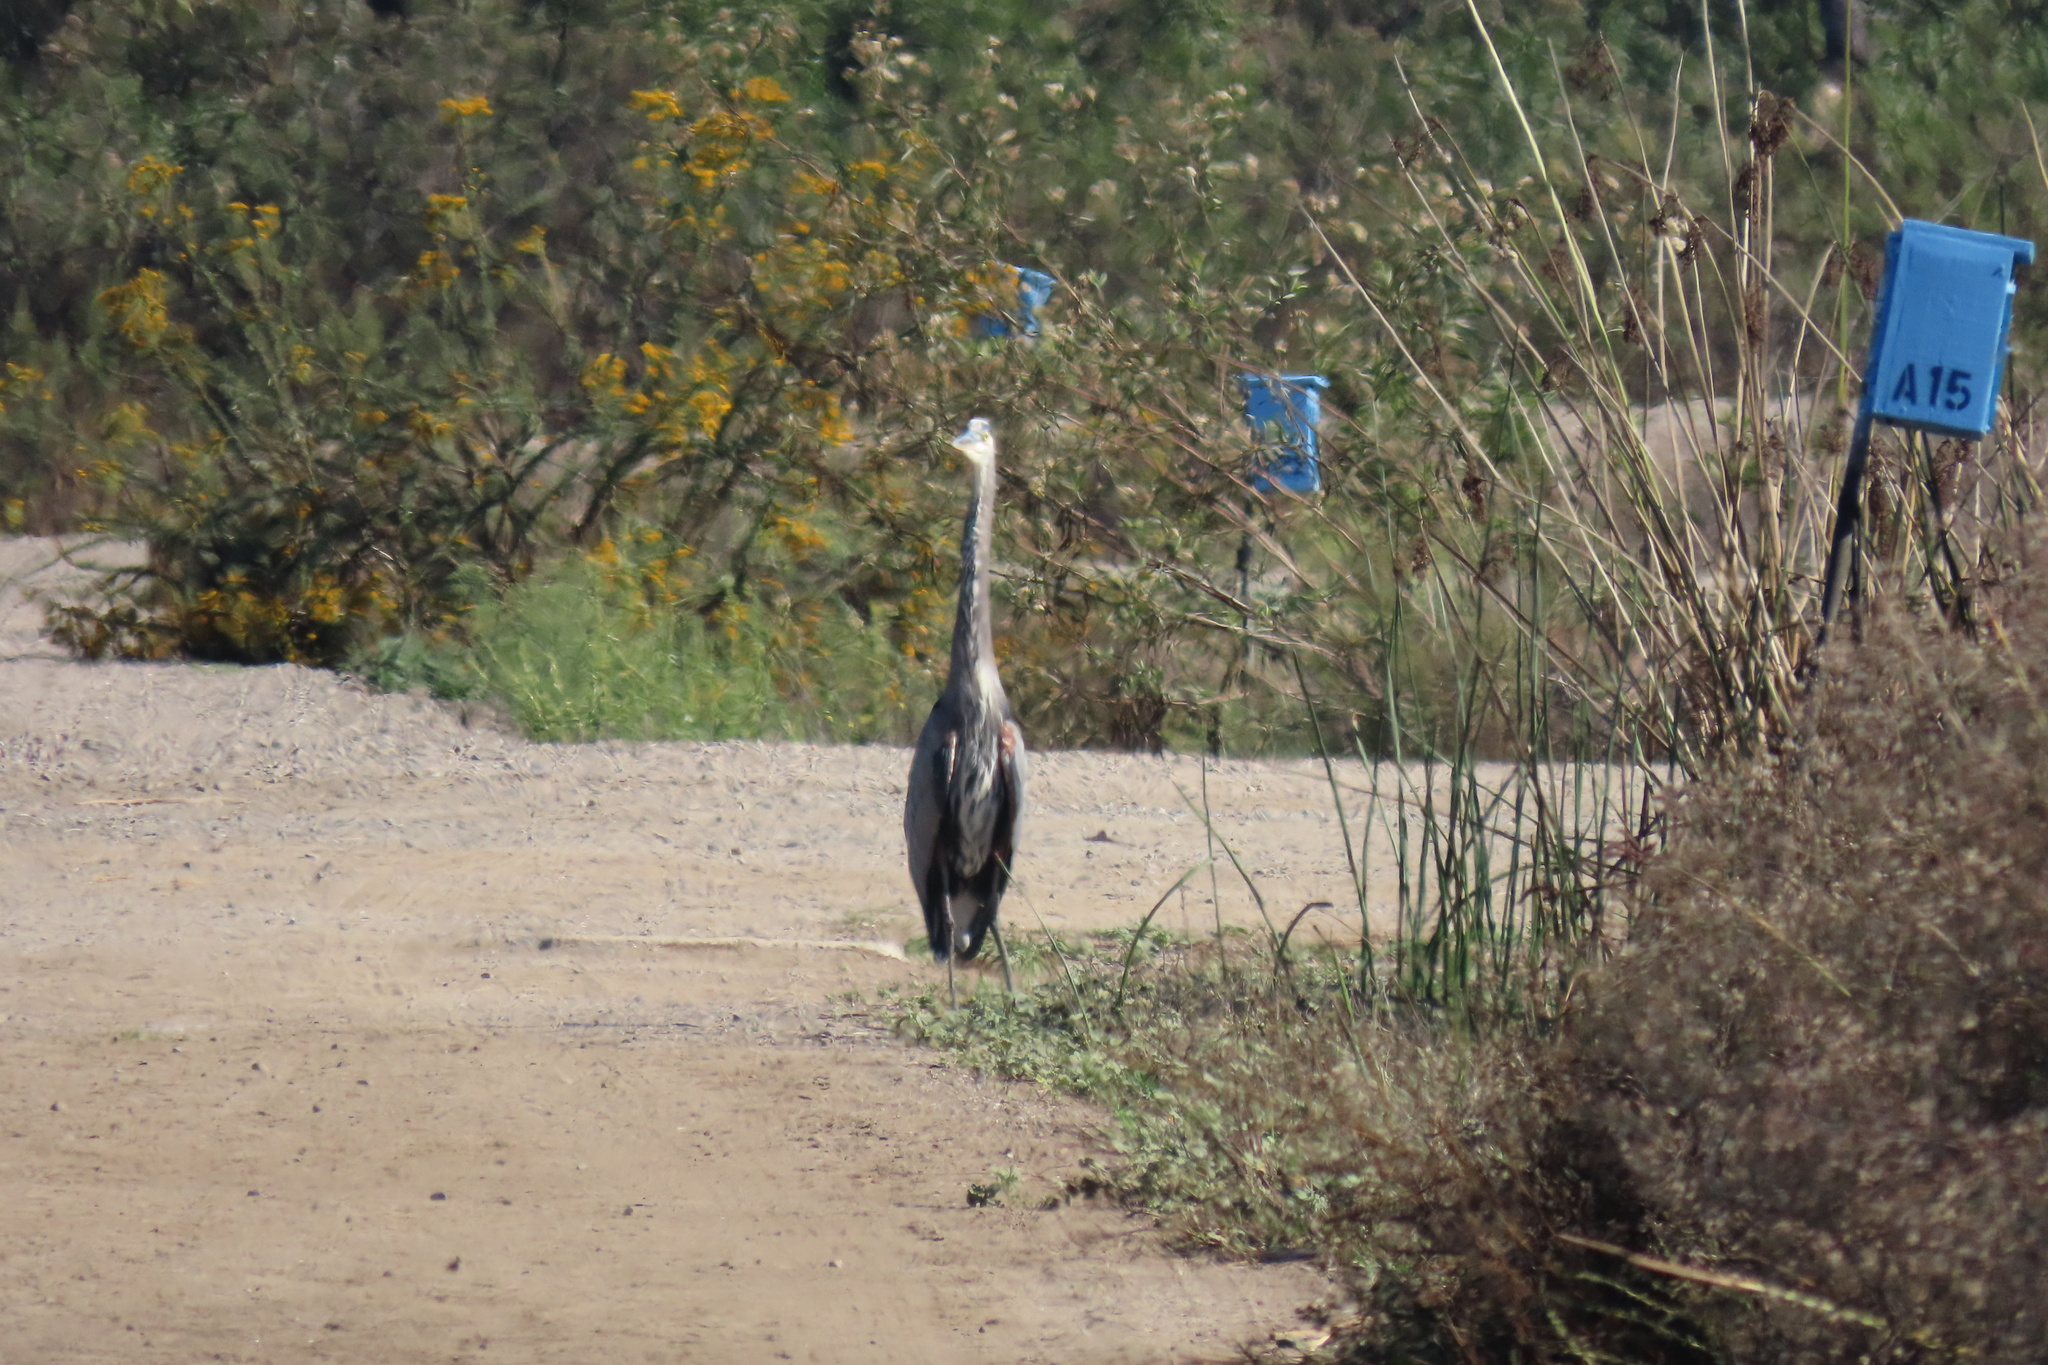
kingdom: Animalia
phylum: Chordata
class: Aves
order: Pelecaniformes
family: Ardeidae
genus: Ardea
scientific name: Ardea herodias
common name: Great blue heron
